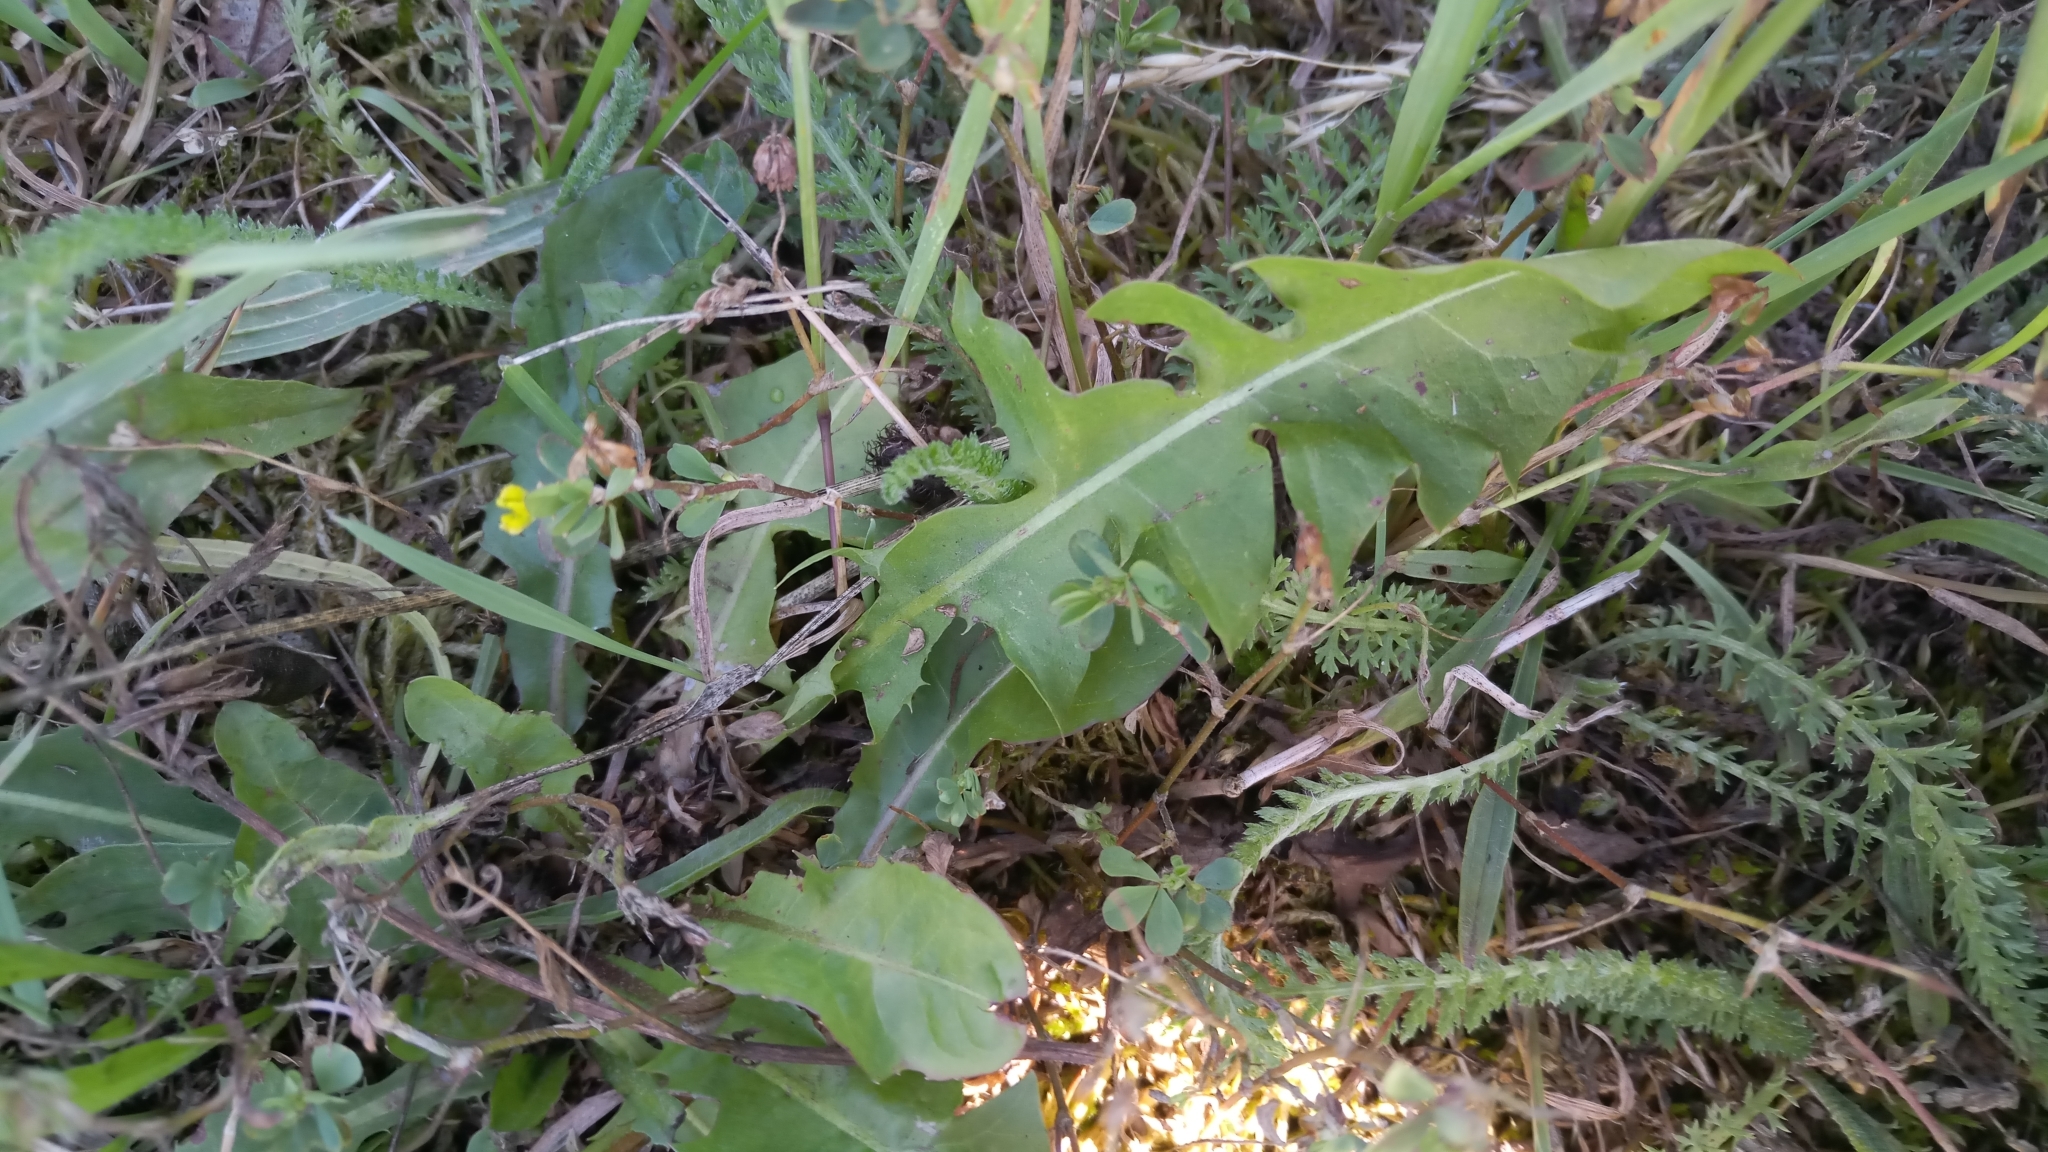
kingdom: Plantae
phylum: Tracheophyta
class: Magnoliopsida
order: Asterales
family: Asteraceae
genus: Taraxacum
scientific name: Taraxacum officinale
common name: Common dandelion
